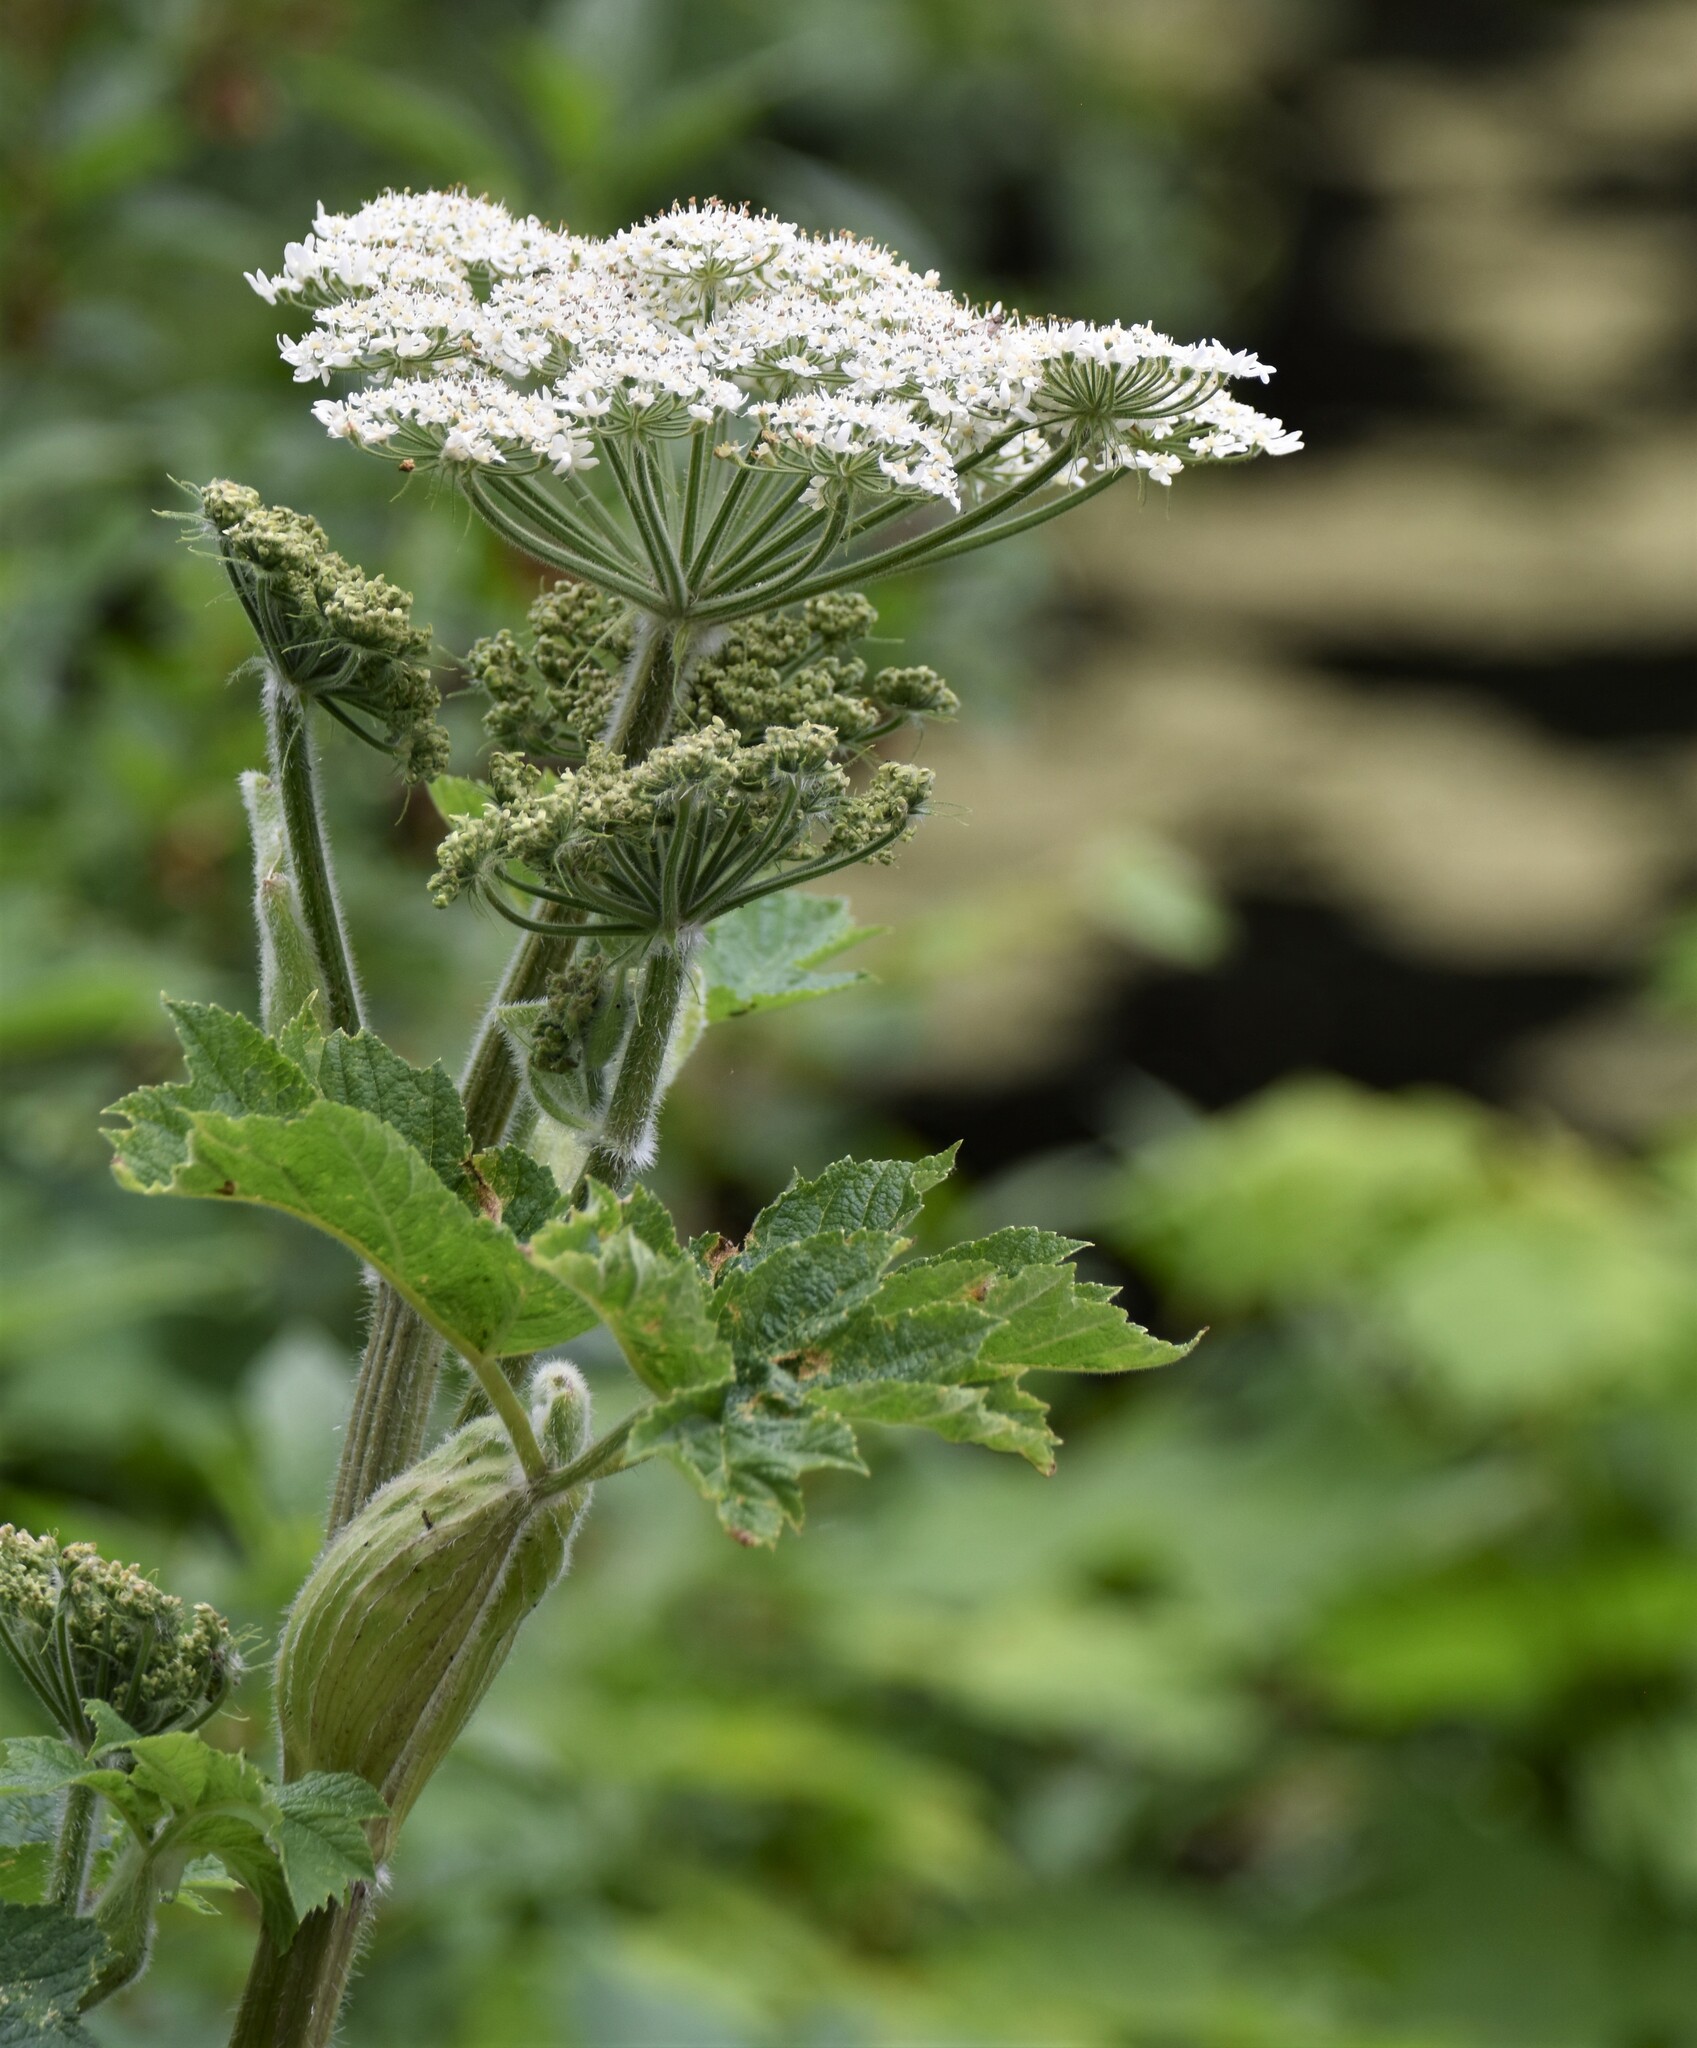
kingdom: Plantae
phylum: Tracheophyta
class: Magnoliopsida
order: Apiales
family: Apiaceae
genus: Heracleum
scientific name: Heracleum maximum
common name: American cow parsnip
